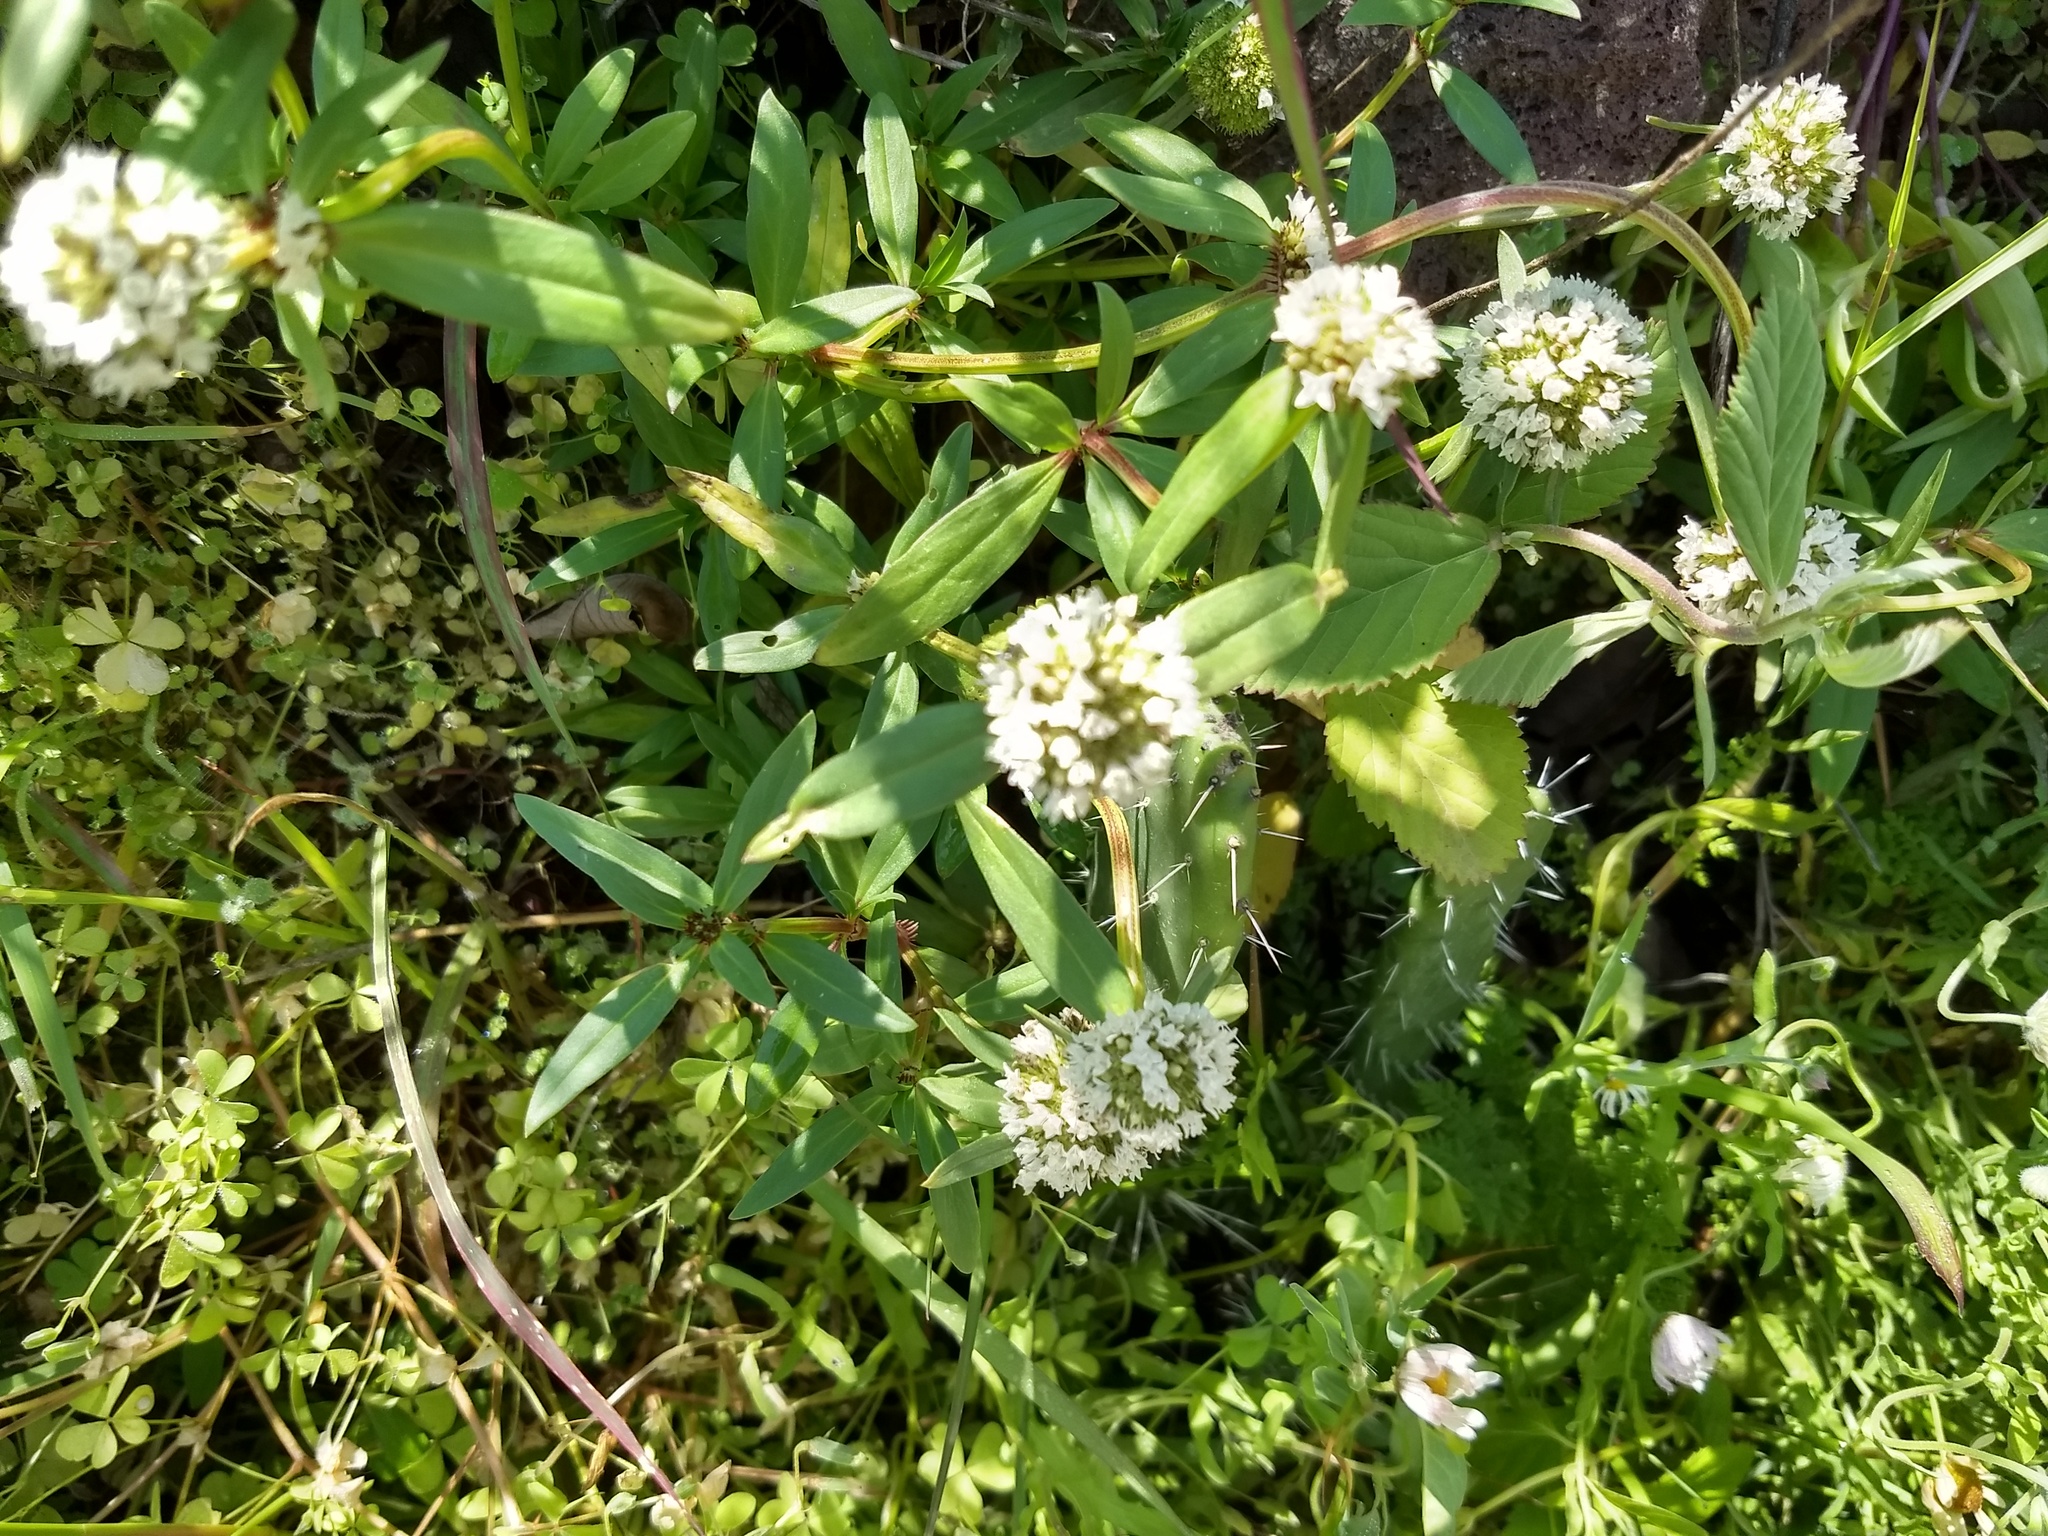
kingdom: Plantae
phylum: Tracheophyta
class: Magnoliopsida
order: Gentianales
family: Rubiaceae
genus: Spermacoce
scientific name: Spermacoce densiflora
